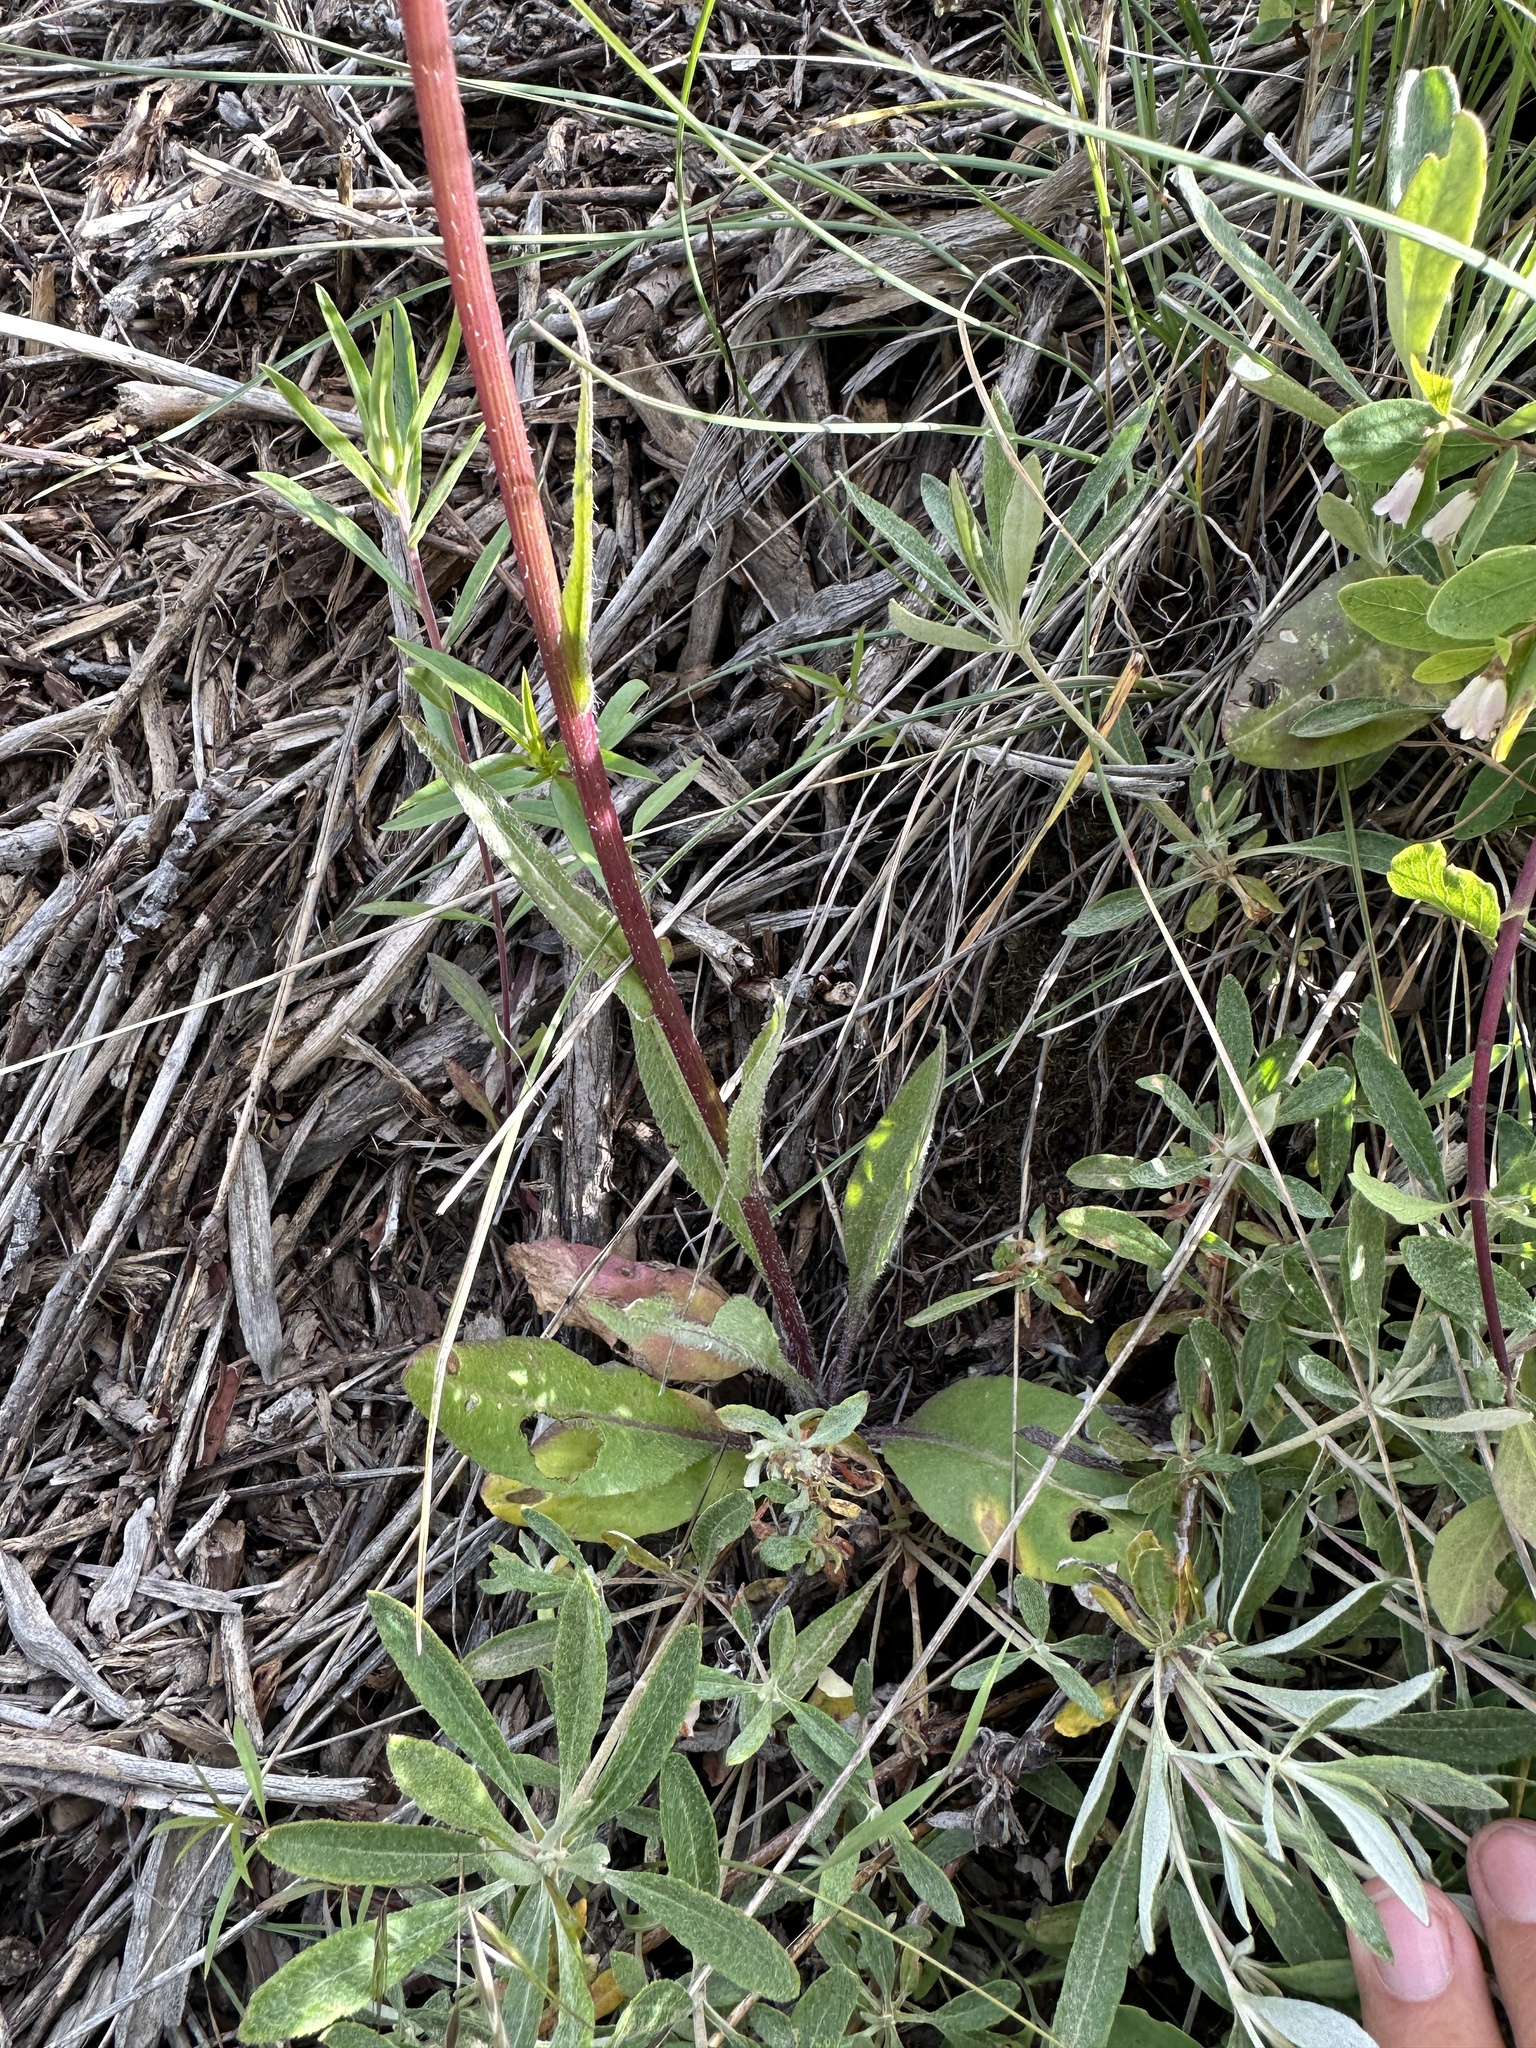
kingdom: Plantae
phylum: Tracheophyta
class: Magnoliopsida
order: Asterales
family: Asteraceae
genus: Senecio
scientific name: Senecio integerrimus
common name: Gaugeplant
